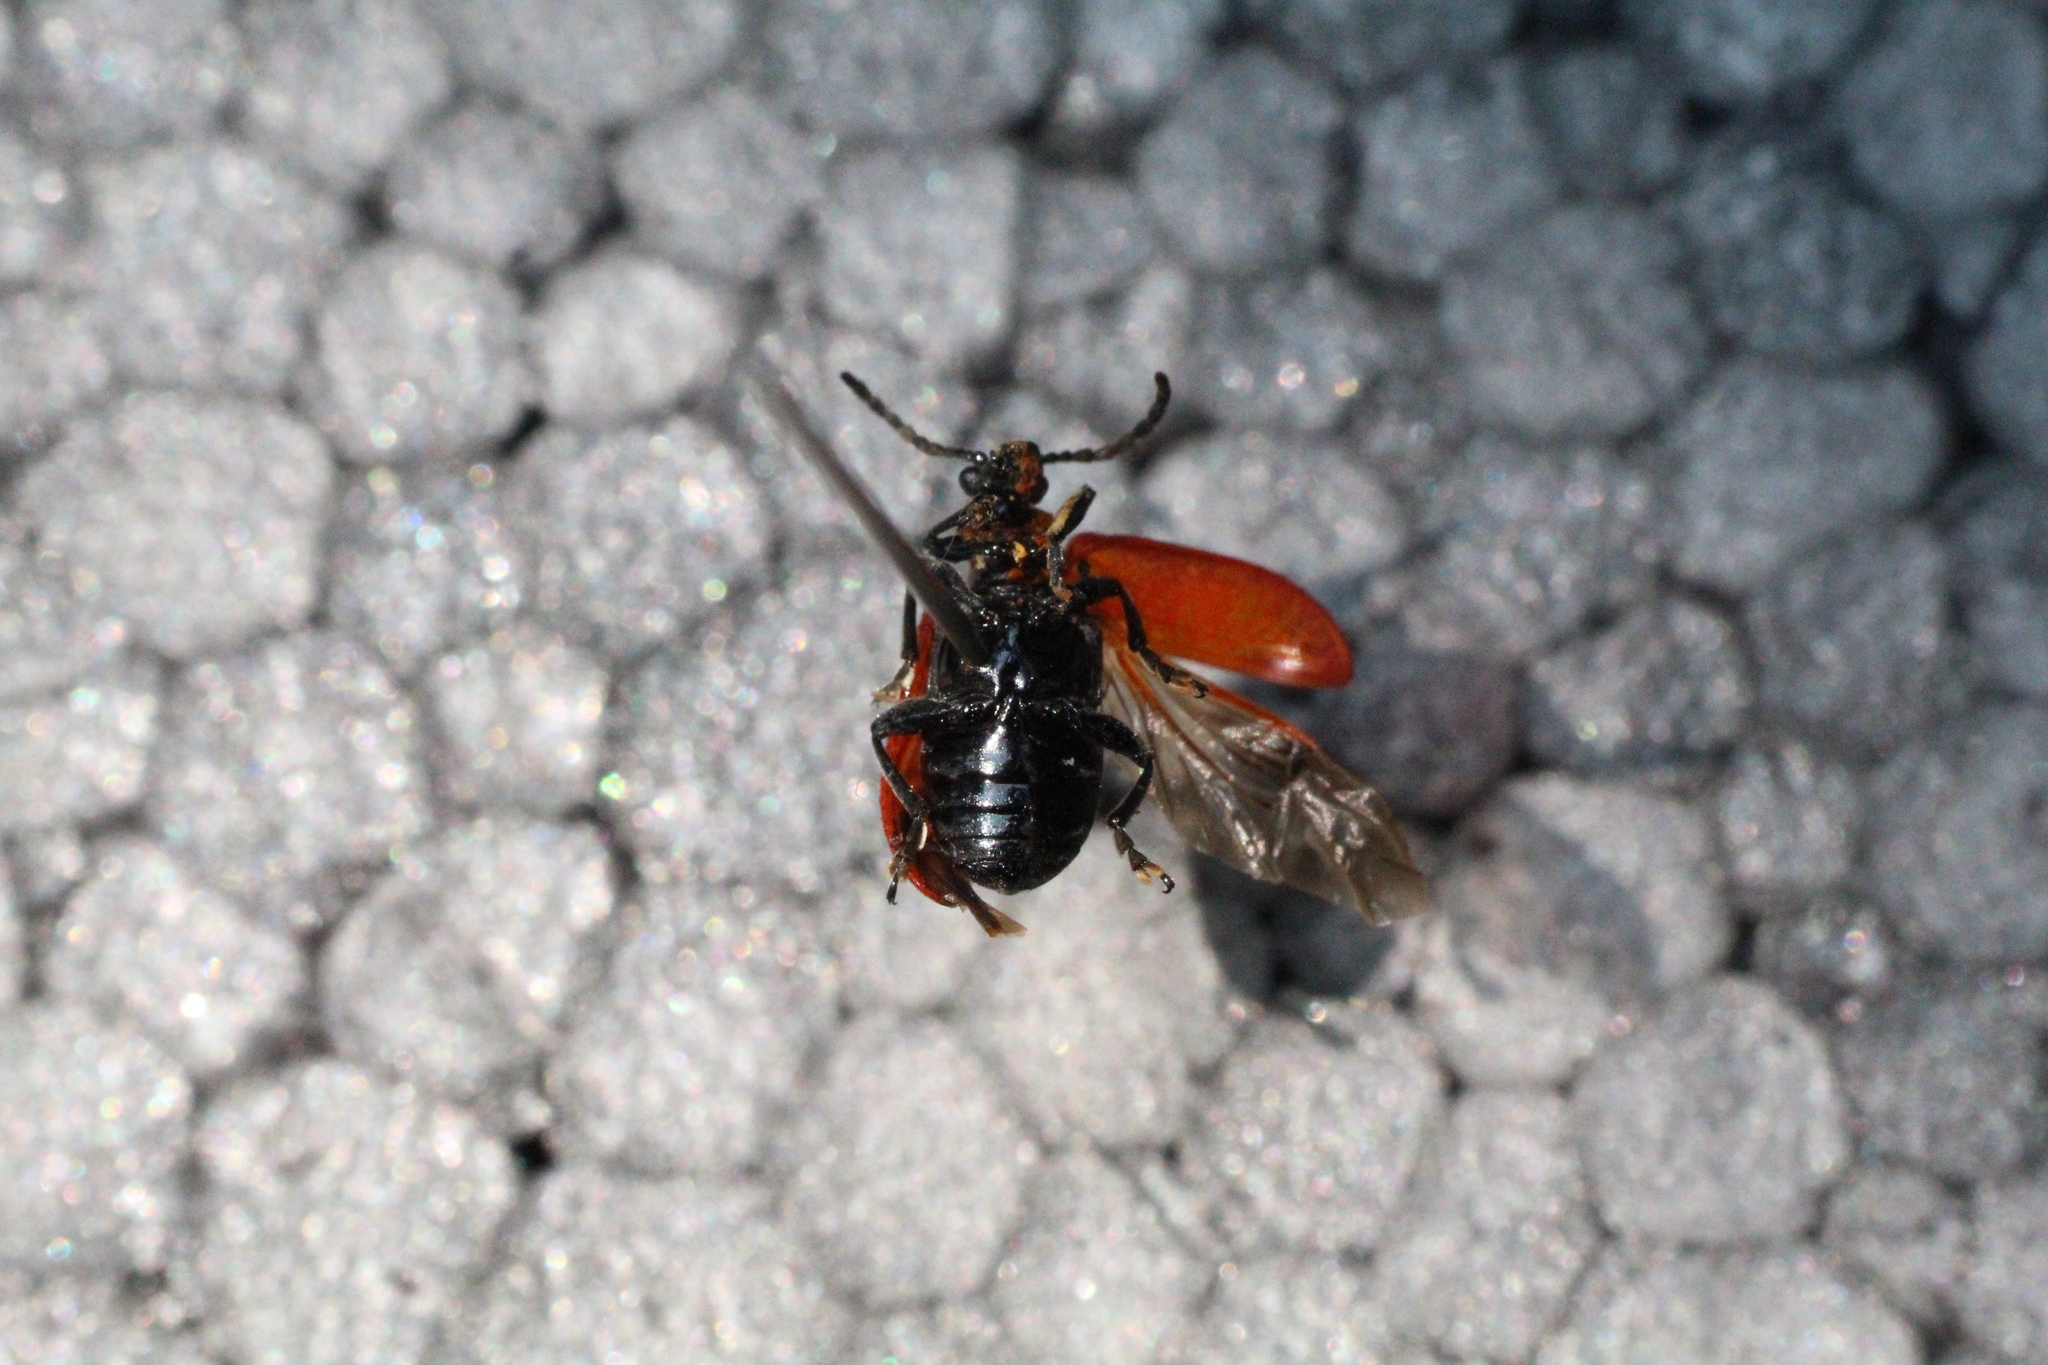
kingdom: Animalia
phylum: Arthropoda
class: Insecta
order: Coleoptera
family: Chrysomelidae
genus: Lilioceris
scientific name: Lilioceris lilii
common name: Lily beetle
